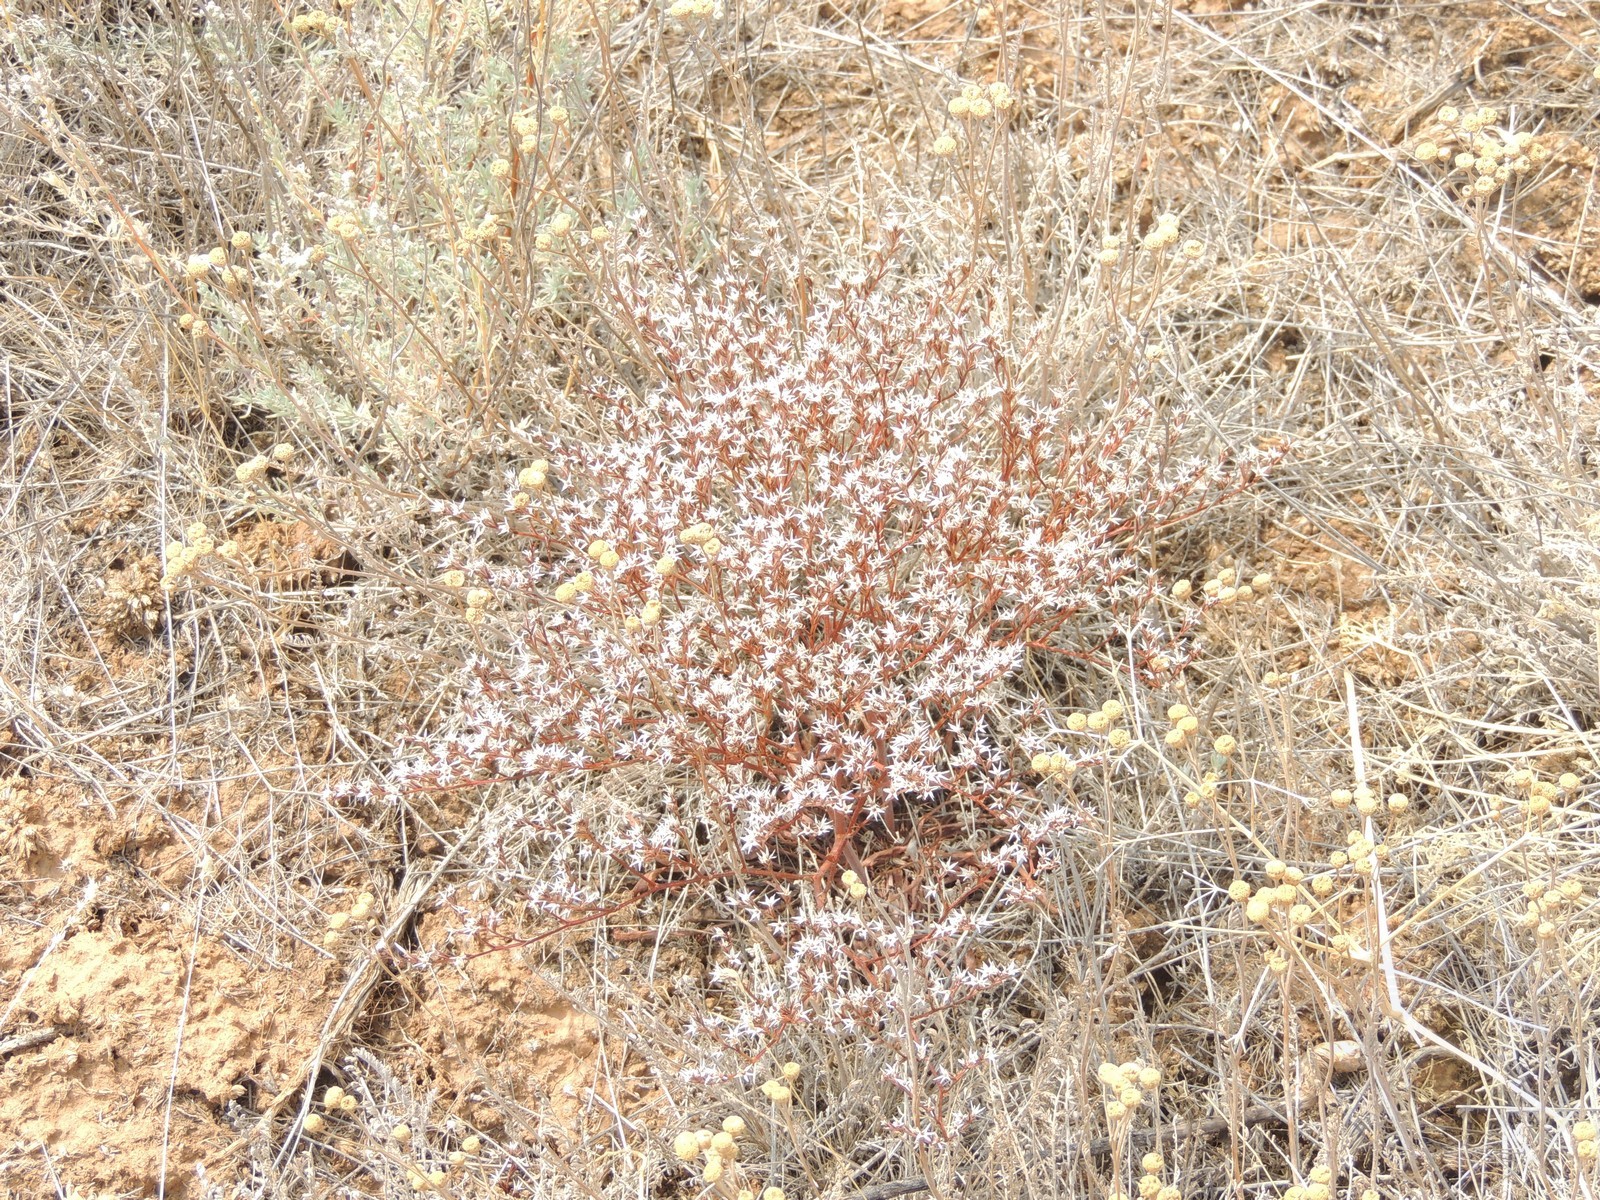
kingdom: Plantae
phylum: Tracheophyta
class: Magnoliopsida
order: Caryophyllales
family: Plumbaginaceae
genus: Goniolimon
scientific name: Goniolimon rubellum
